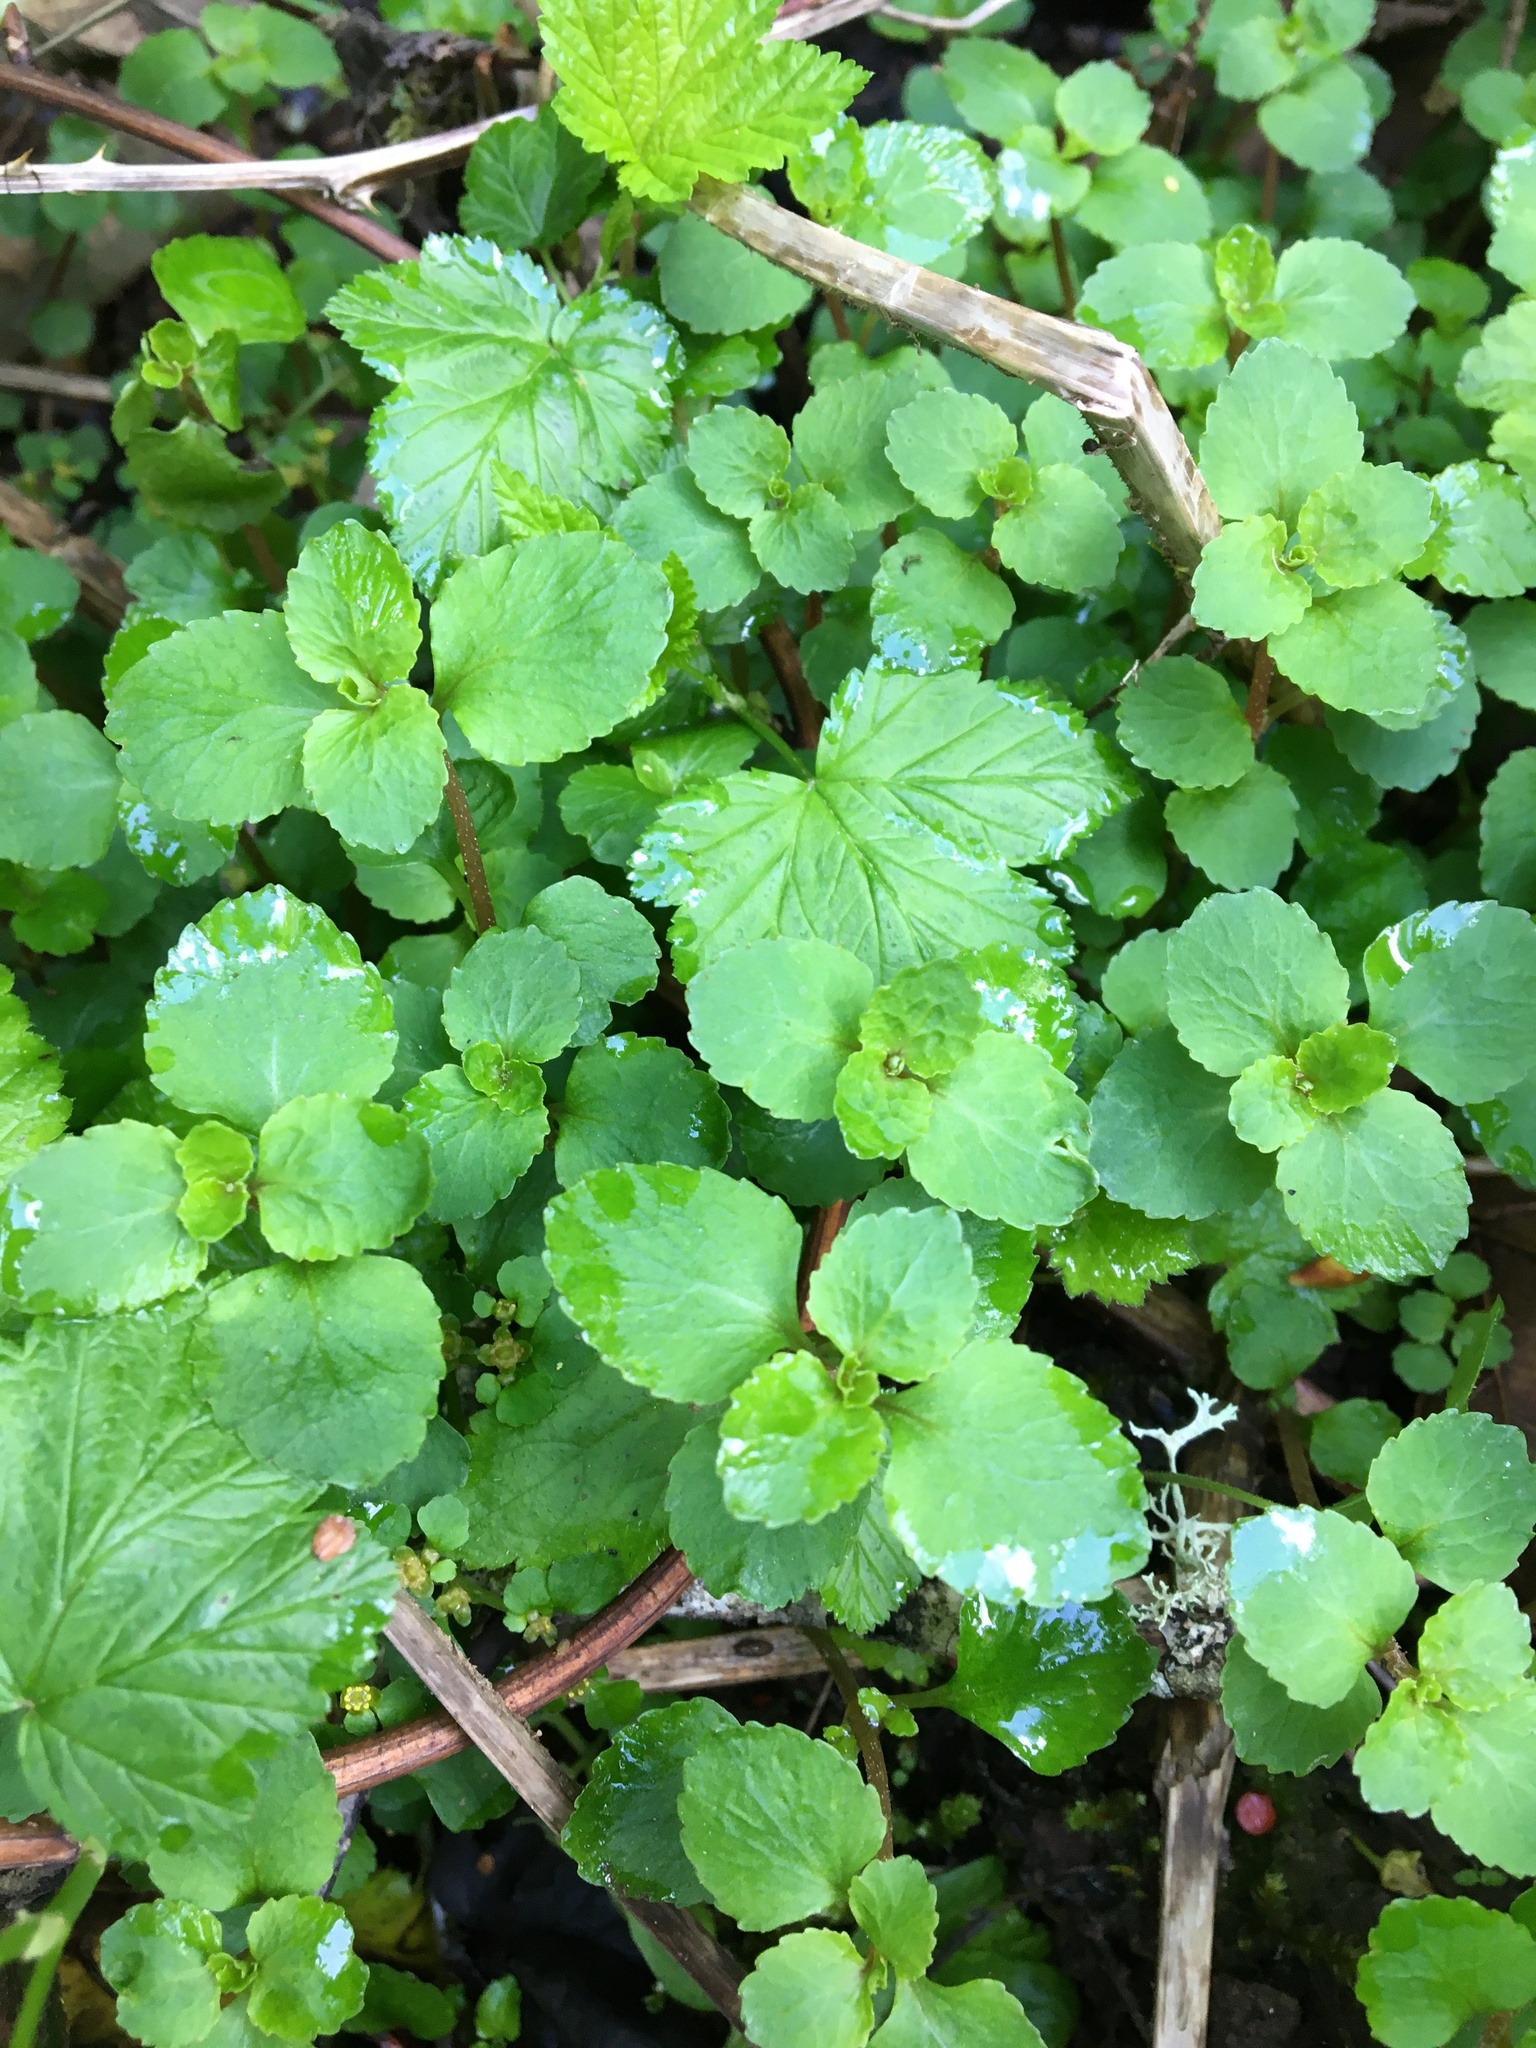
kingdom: Plantae
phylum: Tracheophyta
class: Magnoliopsida
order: Saxifragales
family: Saxifragaceae
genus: Chrysosplenium
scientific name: Chrysosplenium glechomifolium
